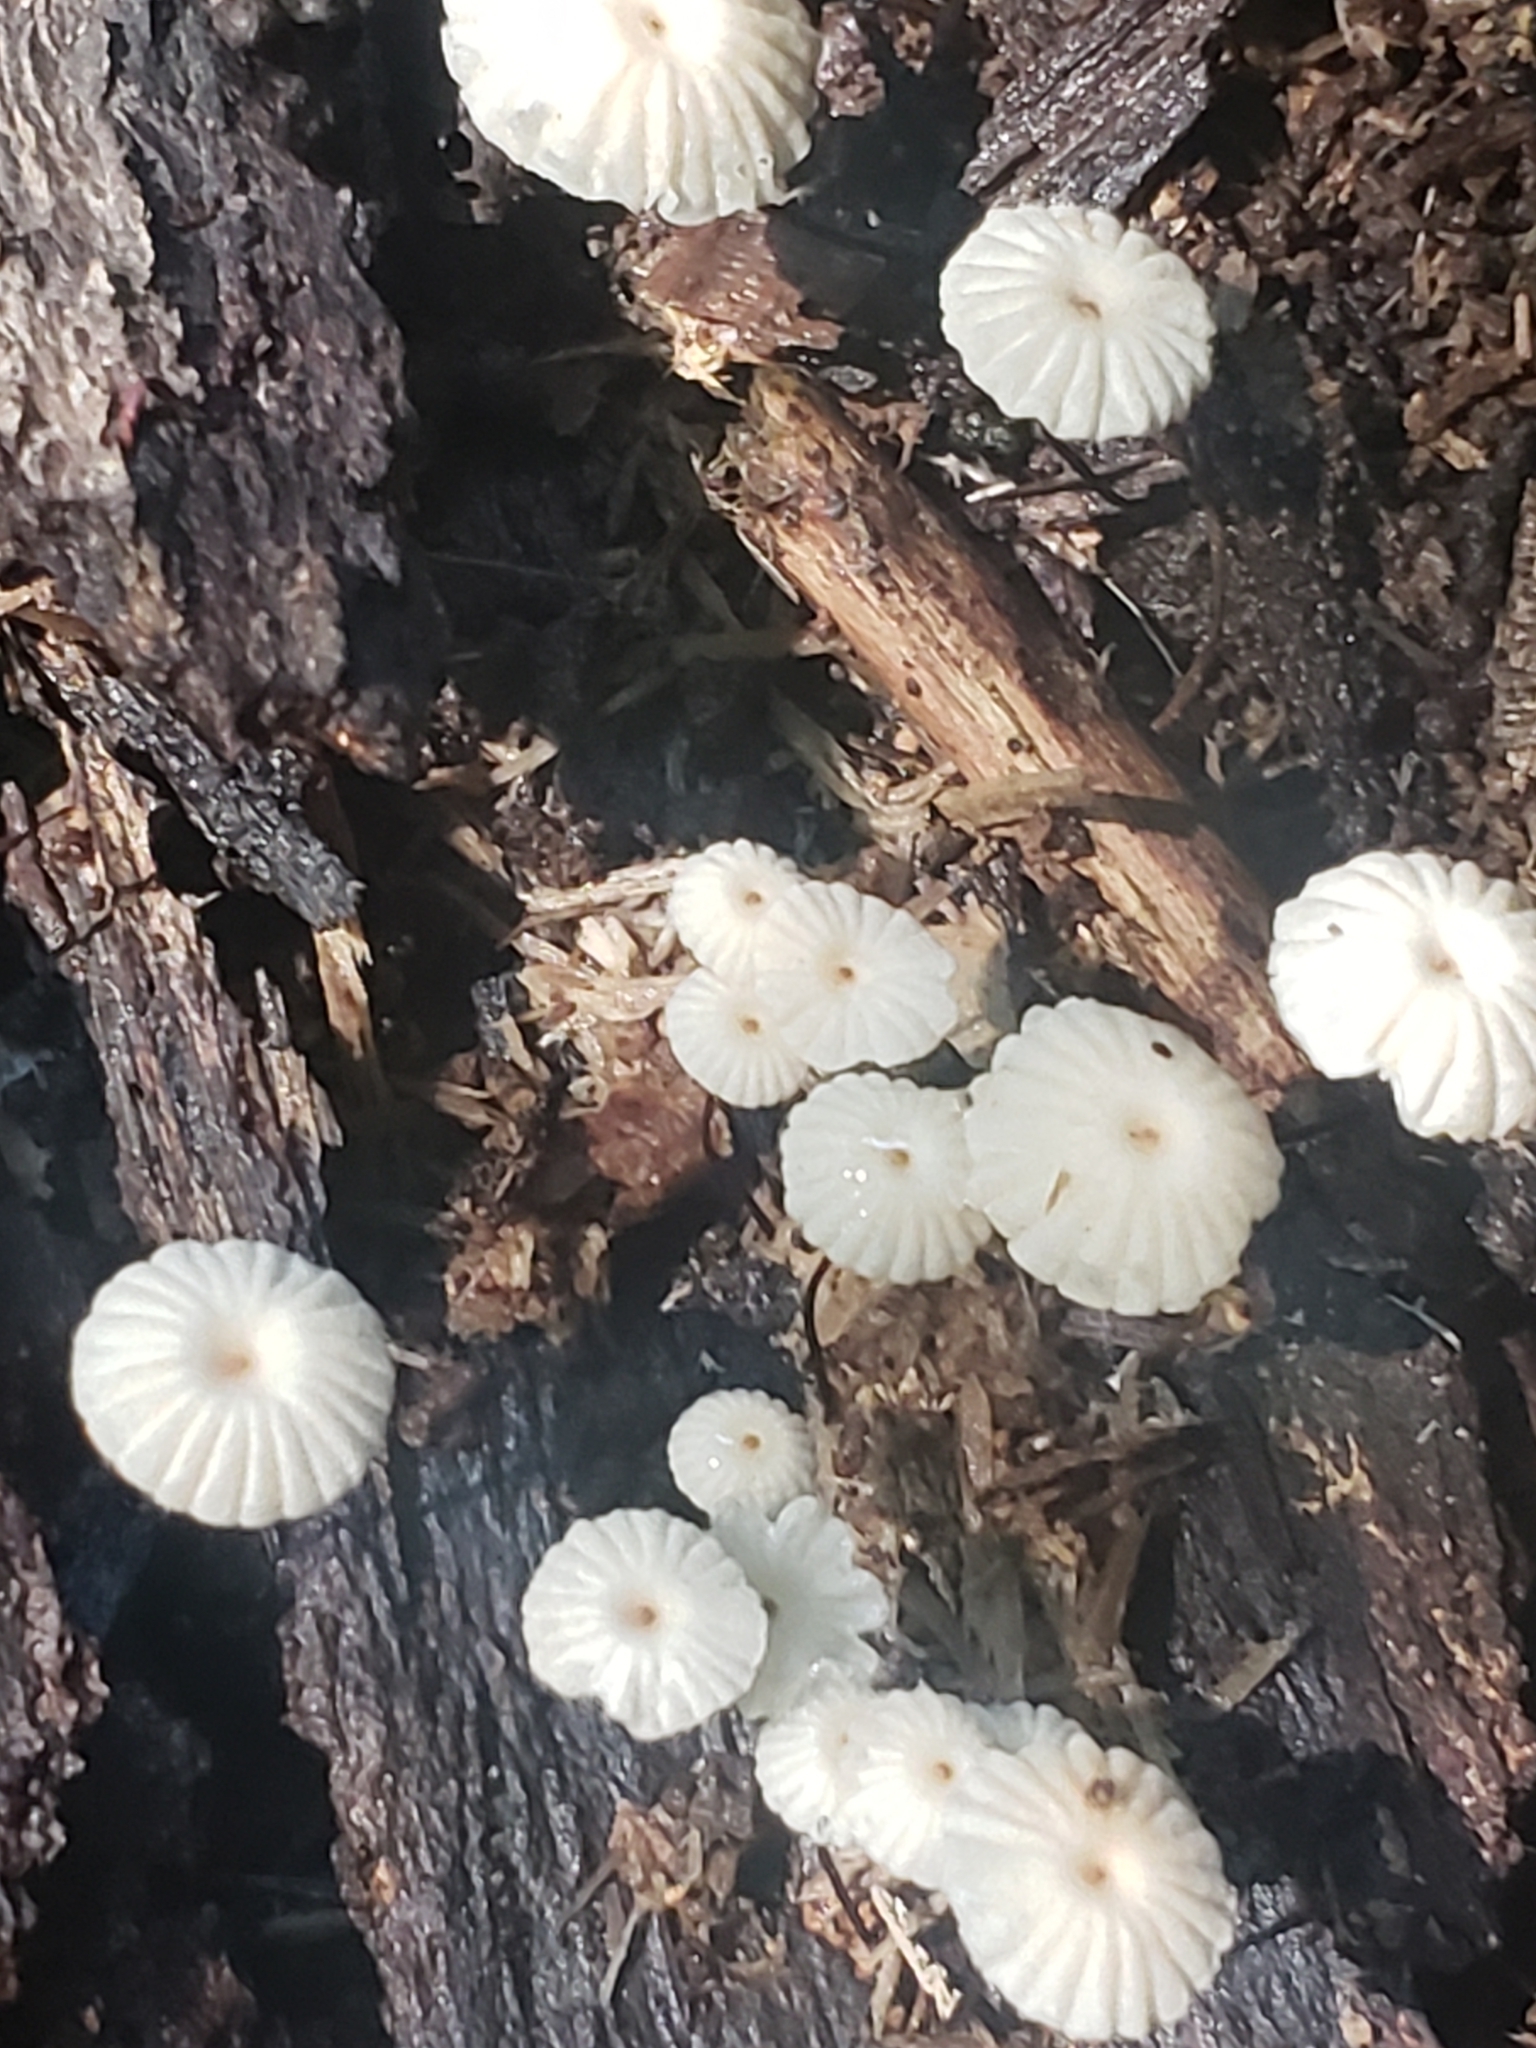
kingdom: Fungi
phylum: Basidiomycota
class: Agaricomycetes
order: Agaricales
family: Marasmiaceae
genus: Marasmius
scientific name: Marasmius rotula
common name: Collared parachute
